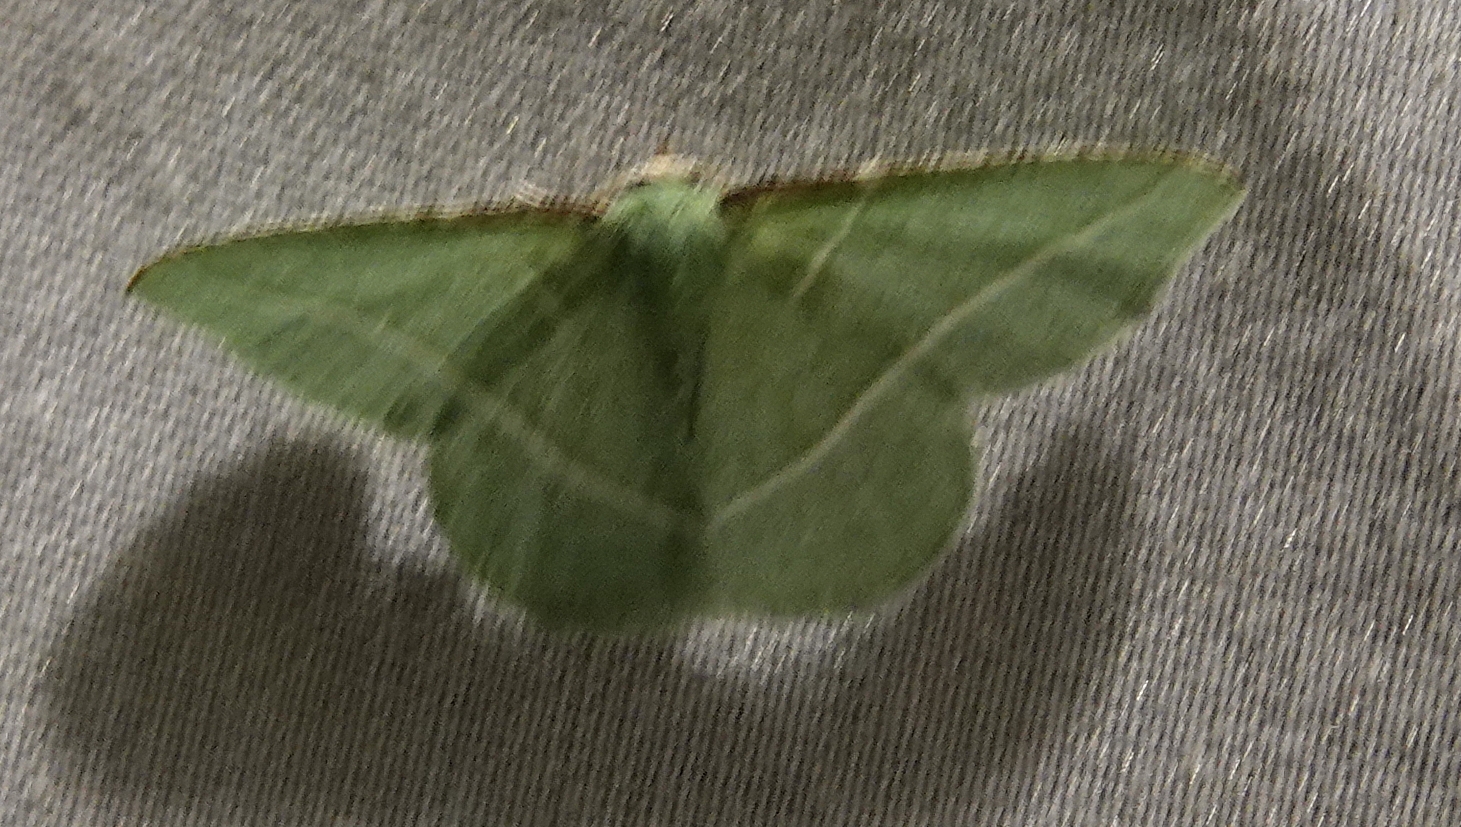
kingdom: Animalia
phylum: Arthropoda
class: Insecta
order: Lepidoptera
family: Geometridae
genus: Dichorda
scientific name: Dichorda rectaria
